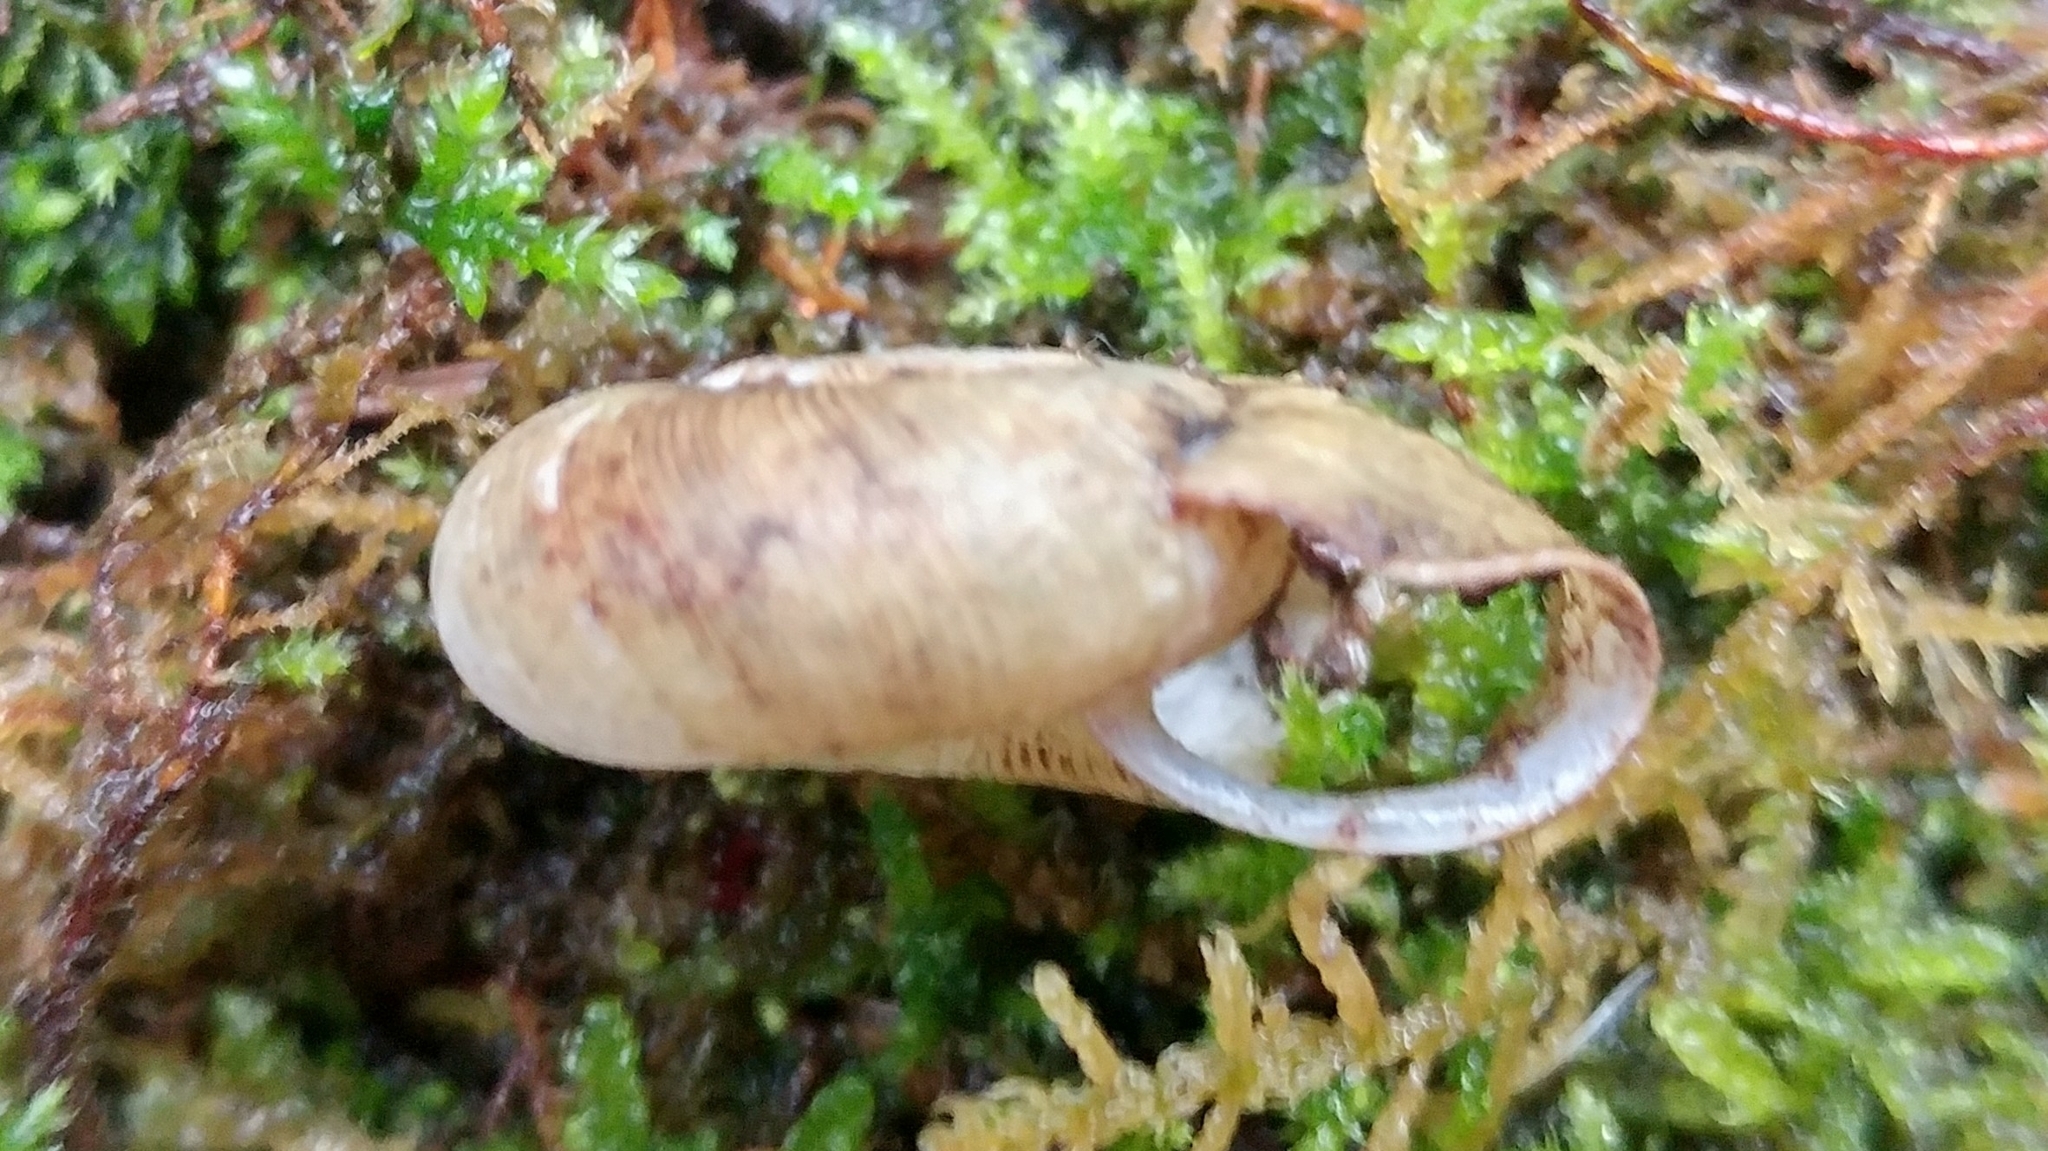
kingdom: Animalia
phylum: Mollusca
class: Gastropoda
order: Stylommatophora
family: Haplotrematidae
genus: Ancotrema
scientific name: Ancotrema sportella
